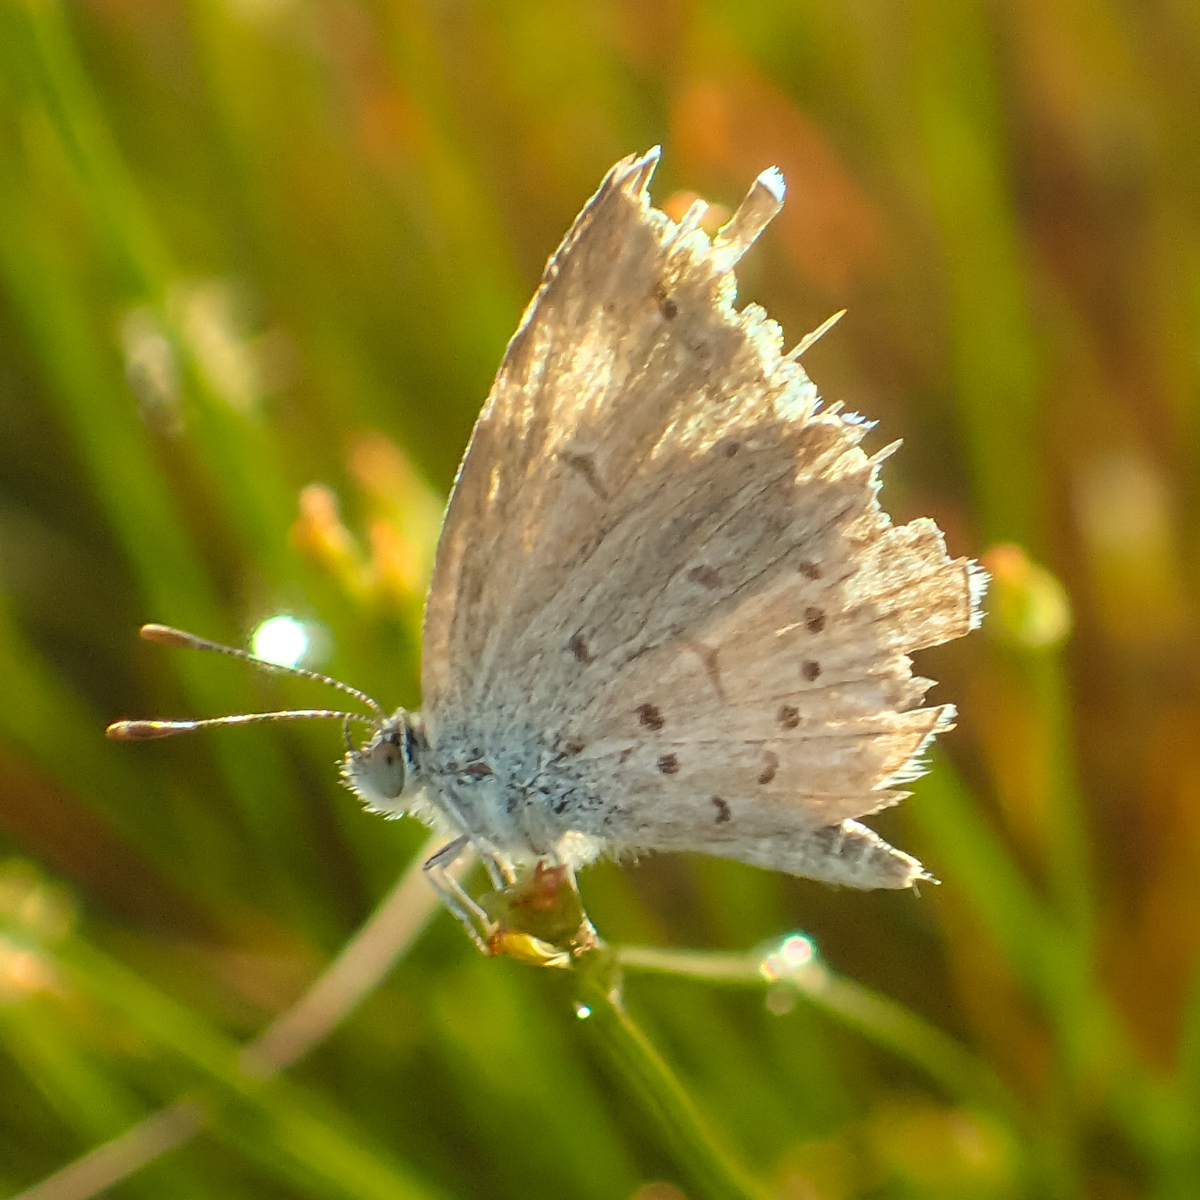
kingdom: Animalia
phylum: Arthropoda
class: Insecta
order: Lepidoptera
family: Lycaenidae
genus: Zizina
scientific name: Zizina otis
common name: Lesser grass blue
